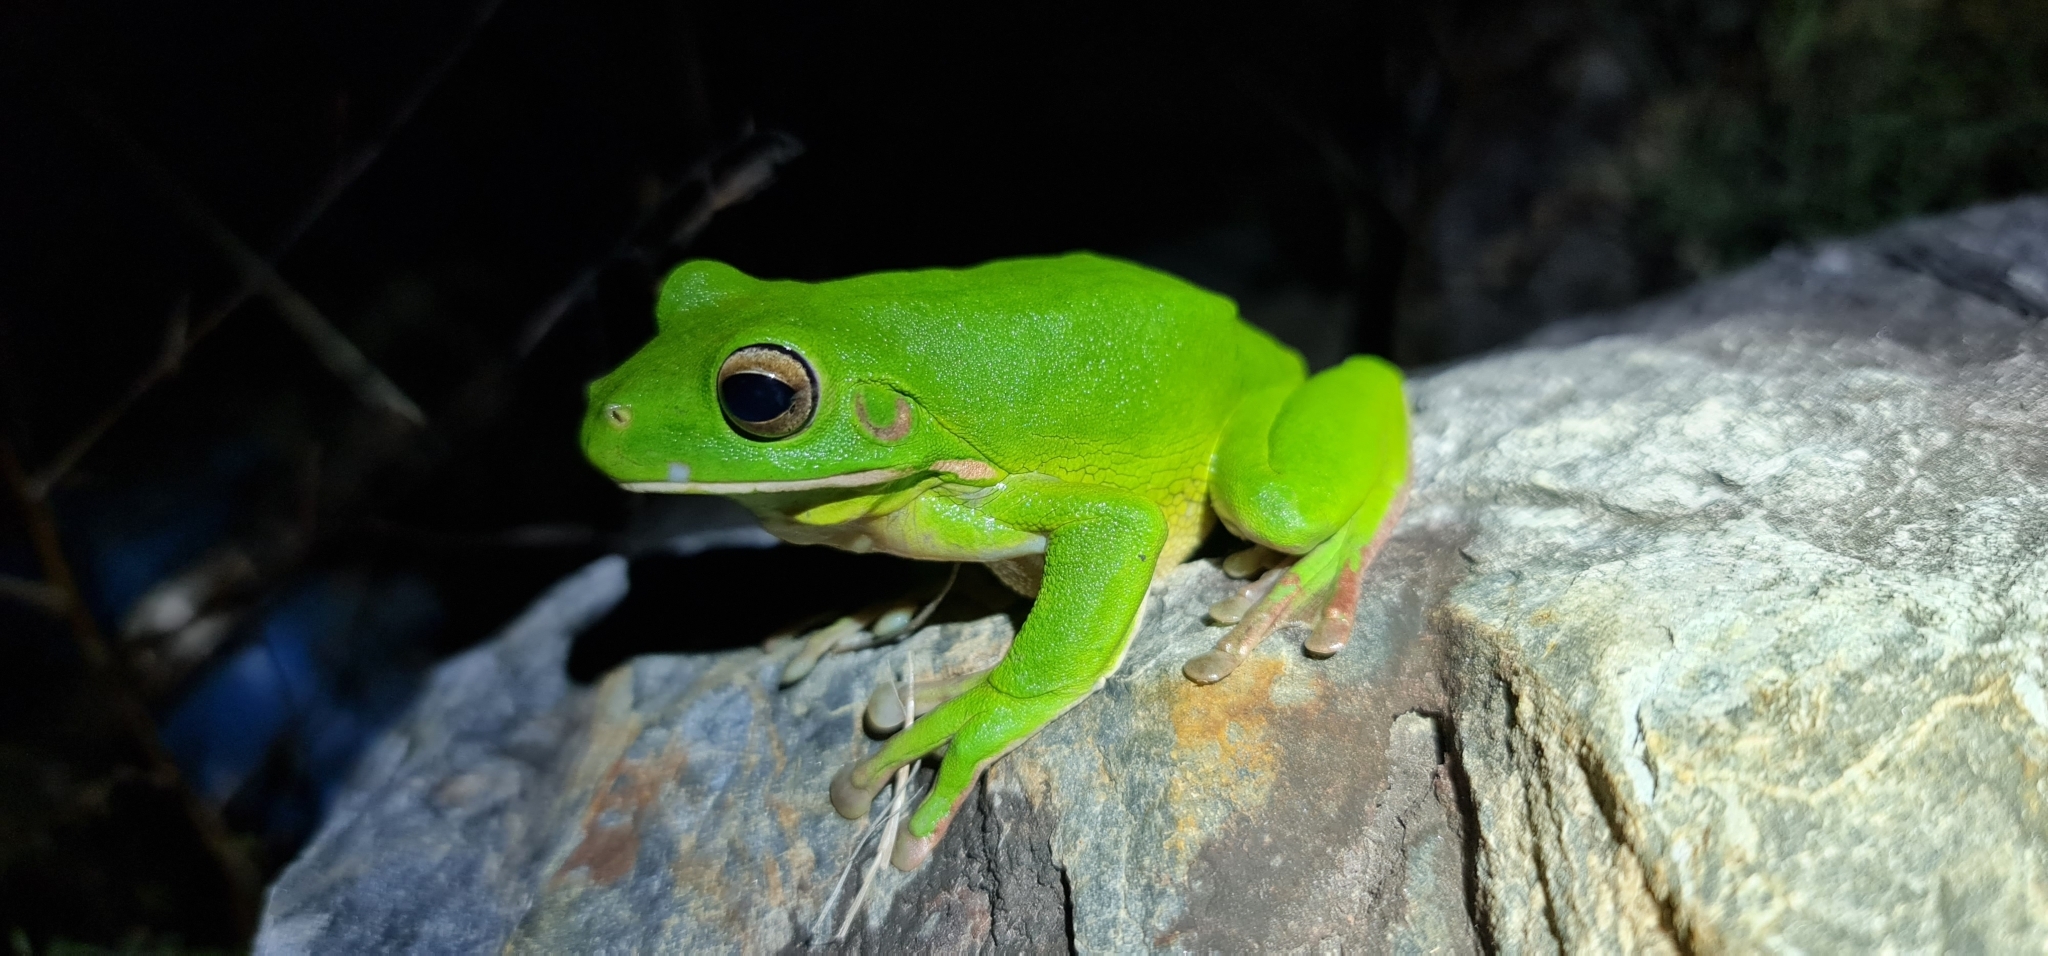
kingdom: Animalia
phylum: Chordata
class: Amphibia
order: Anura
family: Pelodryadidae
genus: Nyctimystes
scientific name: Nyctimystes infrafrenatus
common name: Australian giant treefrog
